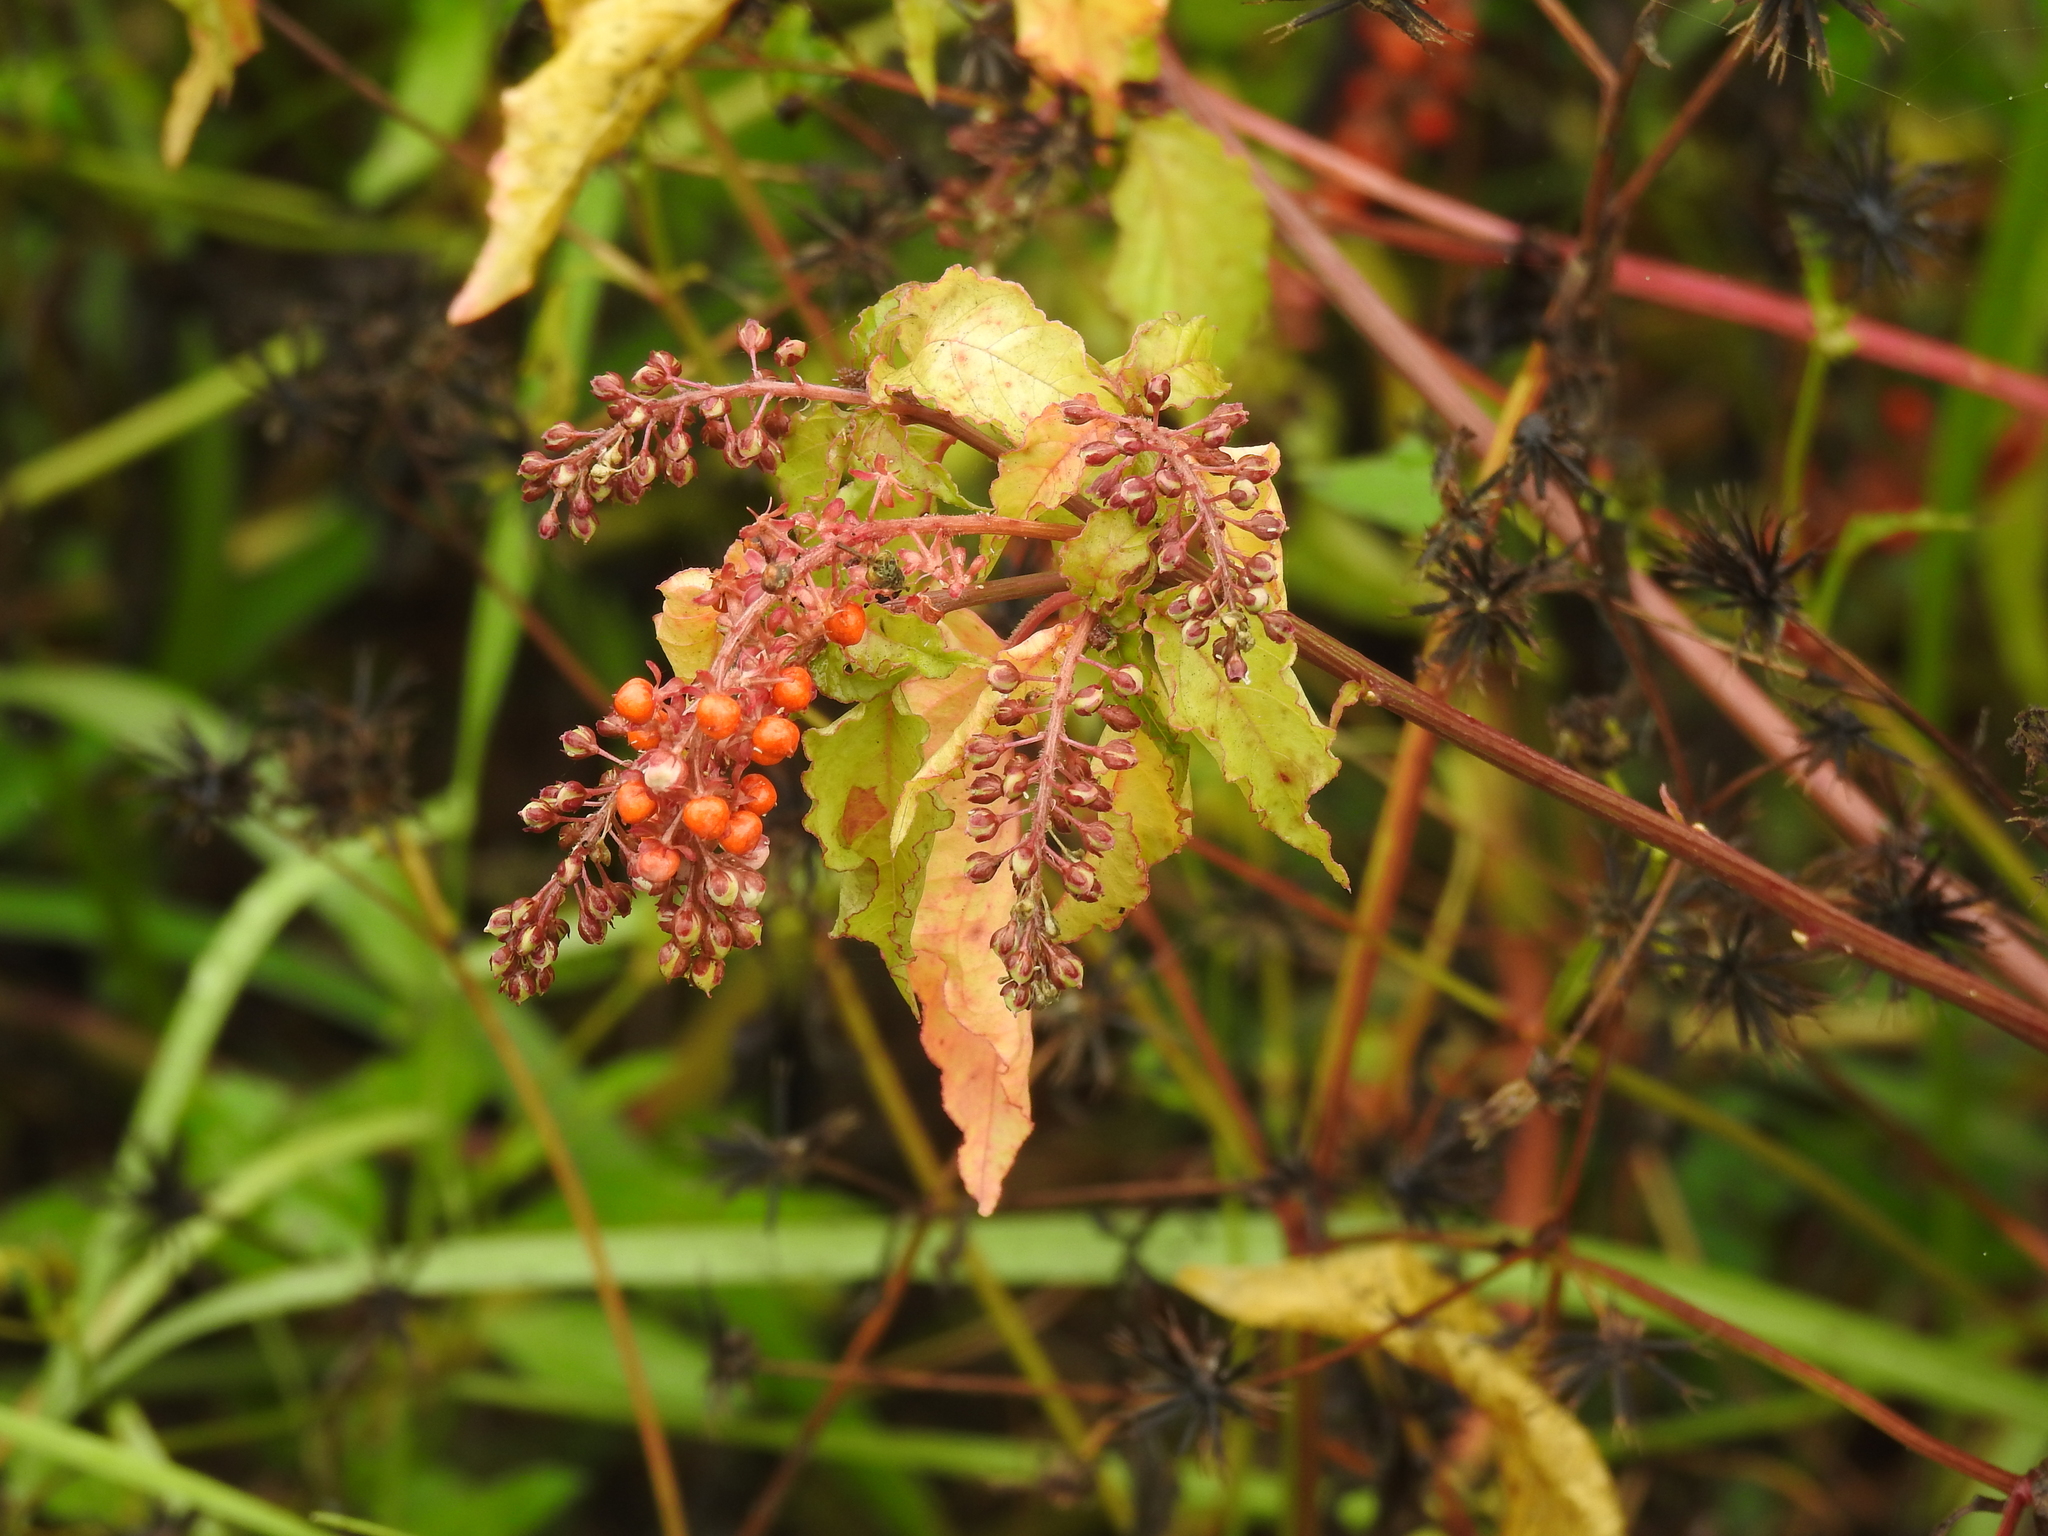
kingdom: Plantae
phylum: Tracheophyta
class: Magnoliopsida
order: Caryophyllales
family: Phytolaccaceae
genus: Rivina
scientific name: Rivina humilis
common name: Rougeplant
